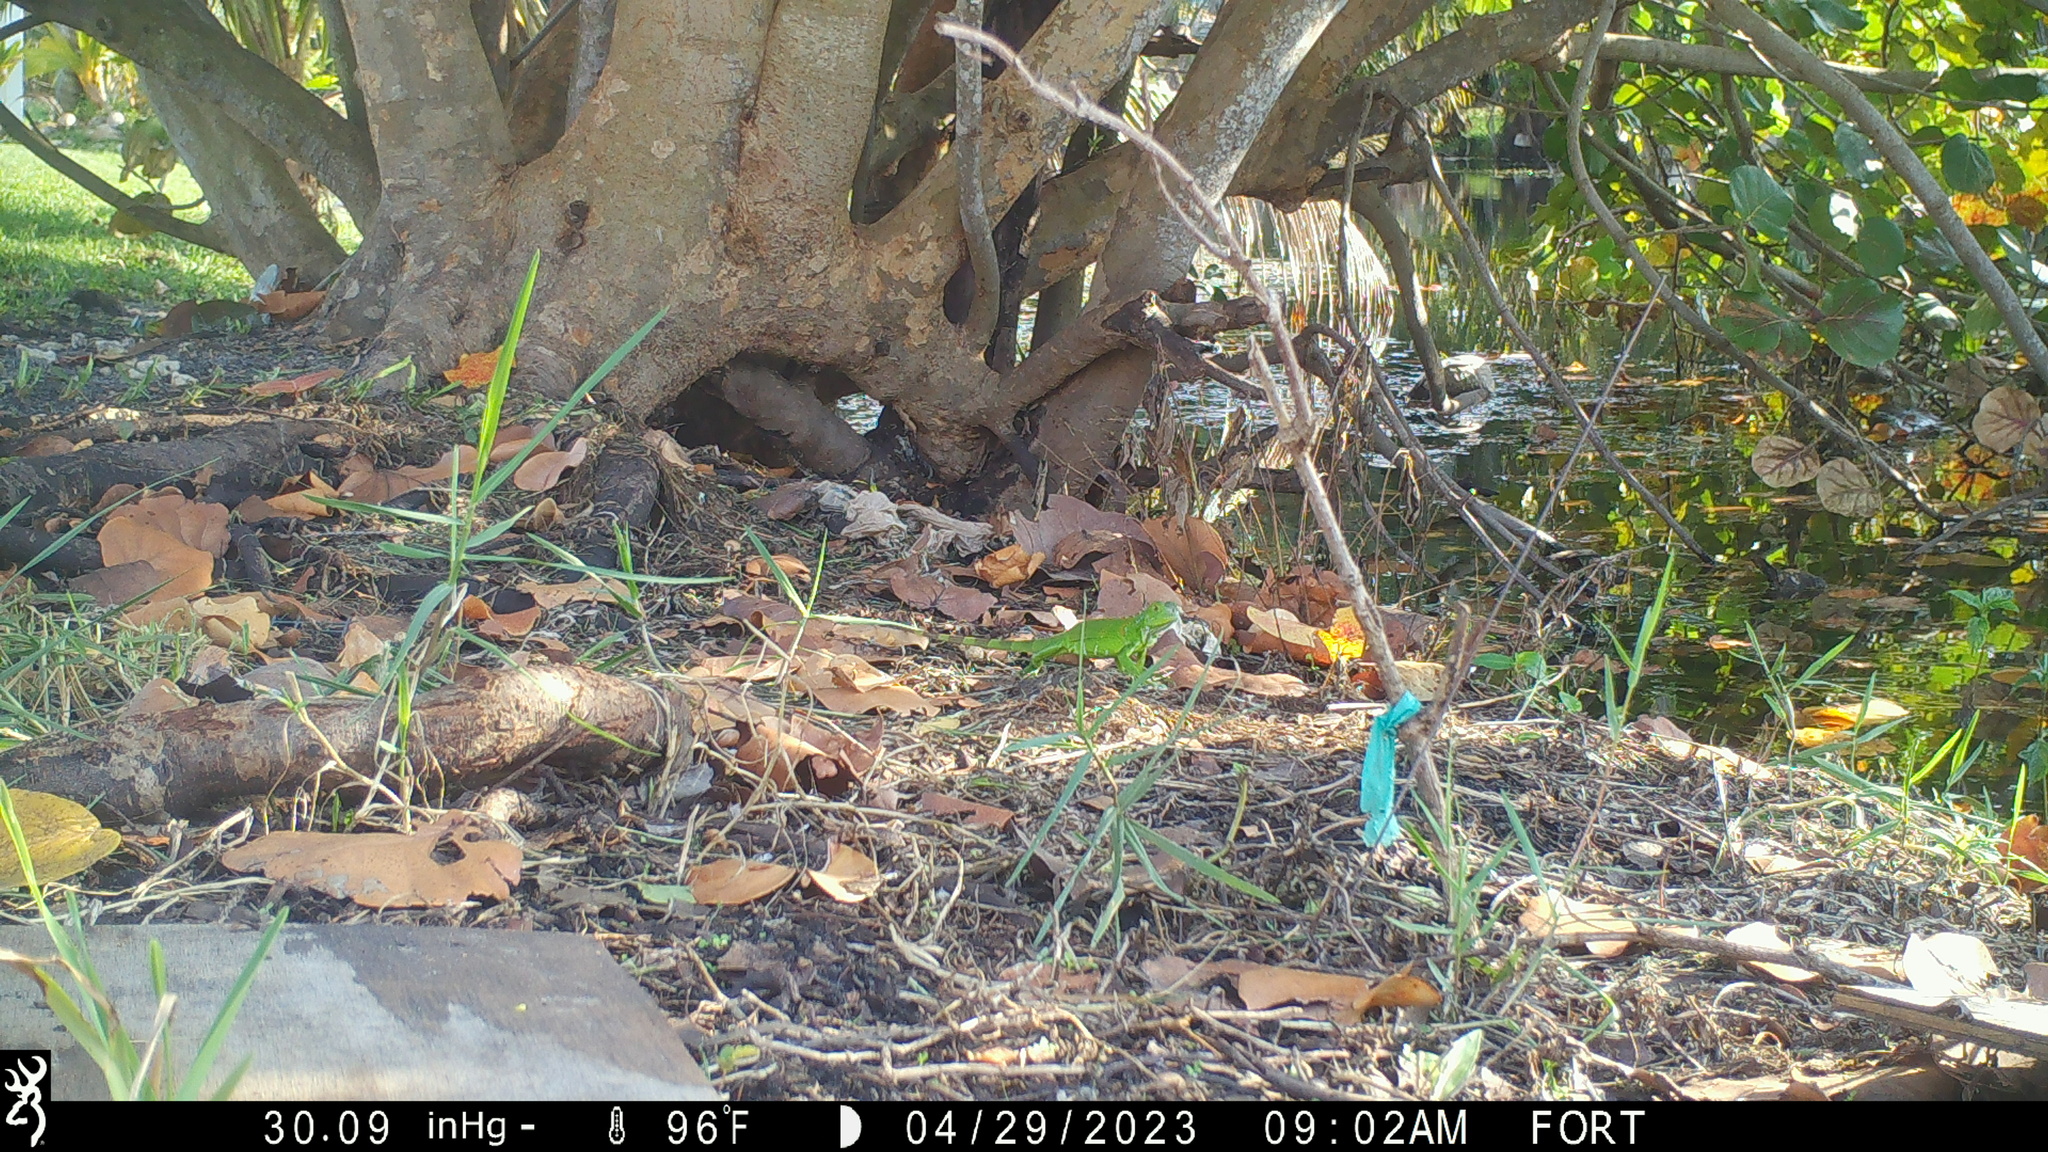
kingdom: Animalia
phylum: Chordata
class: Squamata
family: Iguanidae
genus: Iguana
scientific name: Iguana iguana
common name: Green iguana
